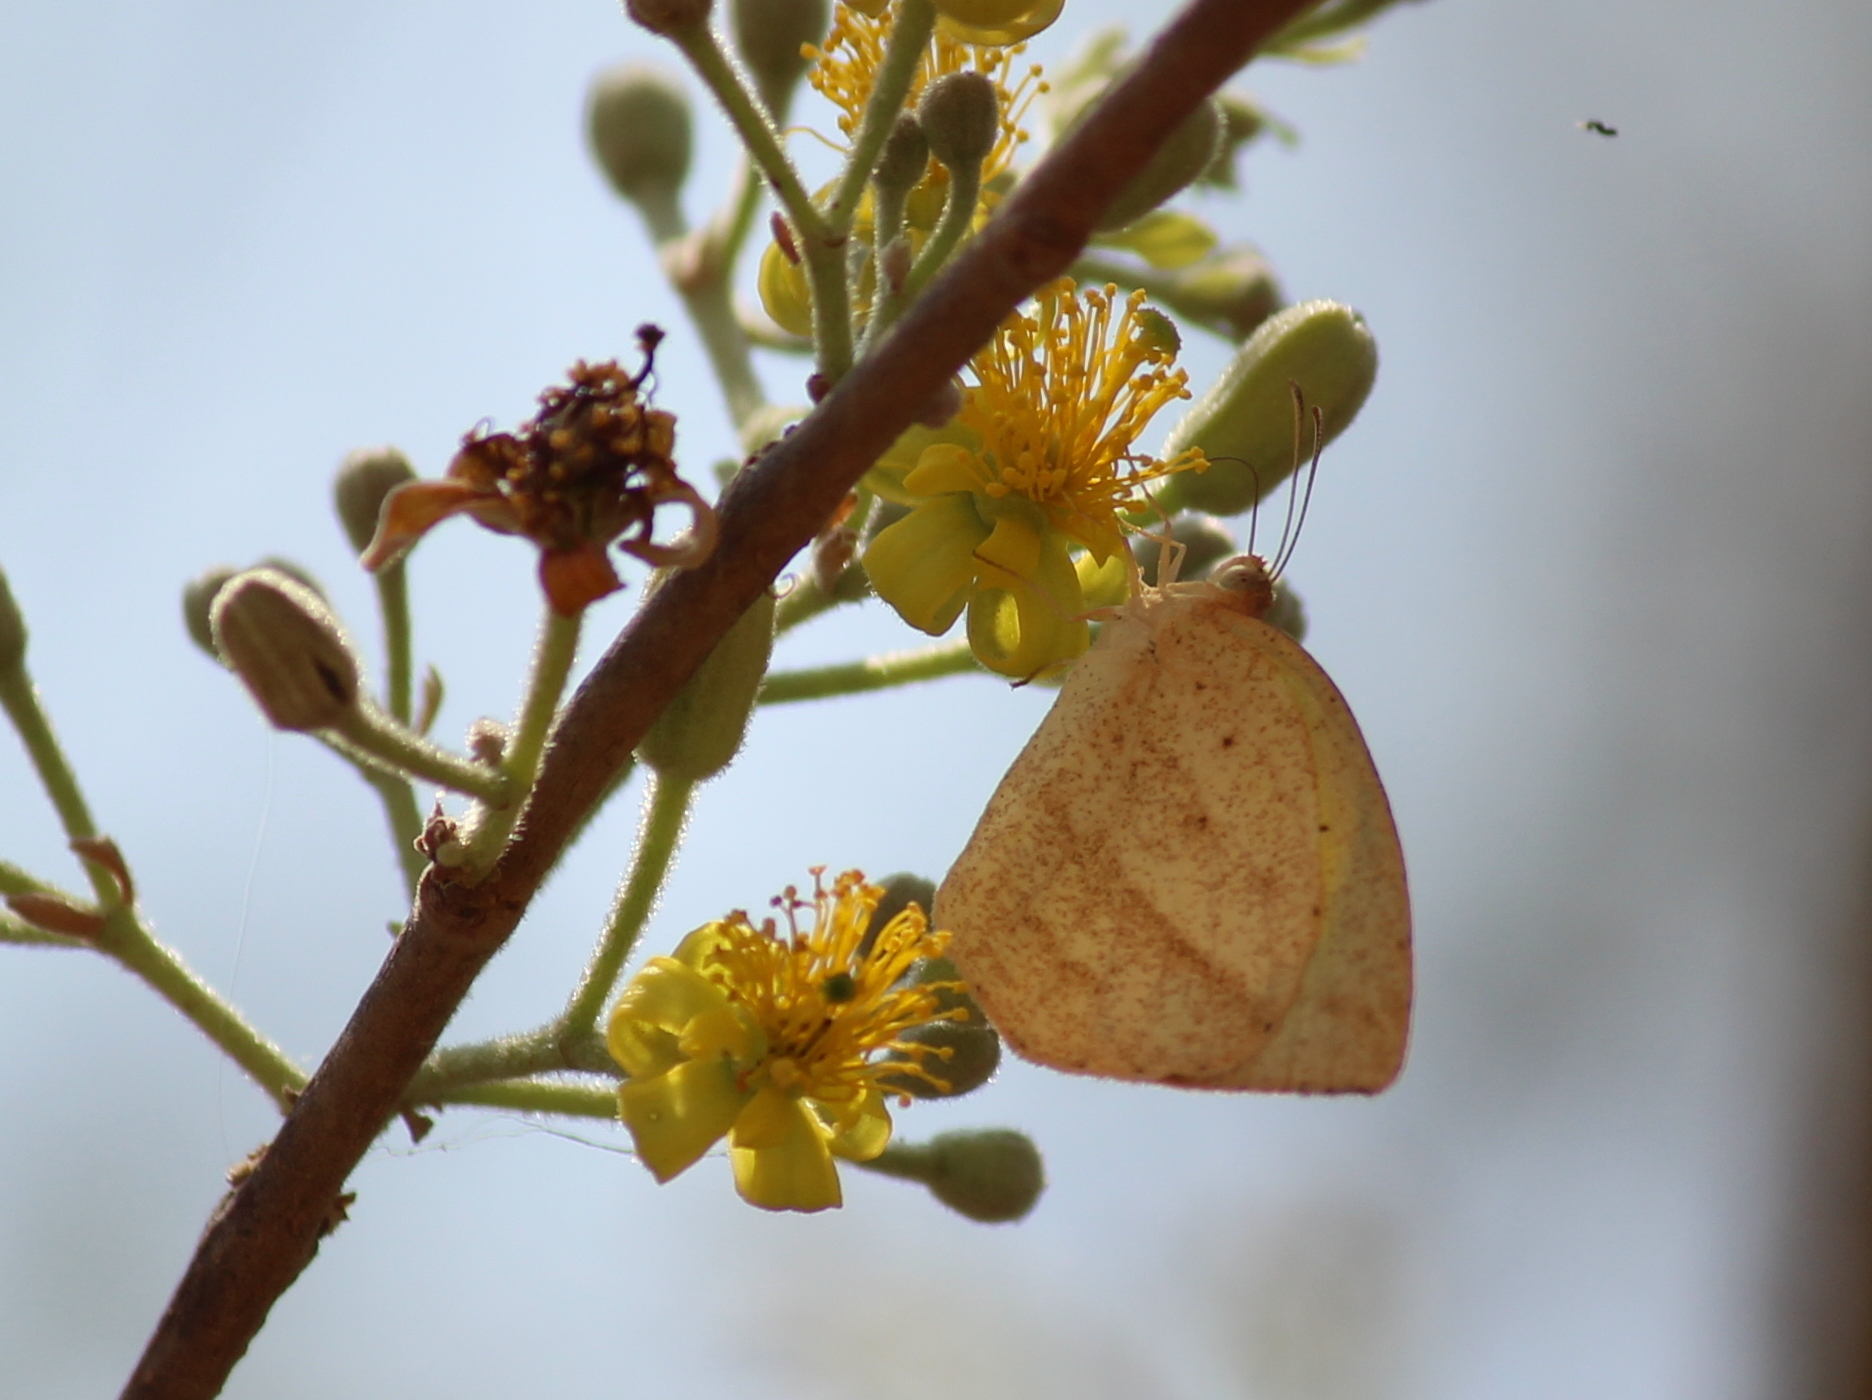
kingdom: Animalia
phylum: Arthropoda
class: Insecta
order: Lepidoptera
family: Pieridae
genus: Eurema
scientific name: Eurema laeta
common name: Spotless grass yellow
